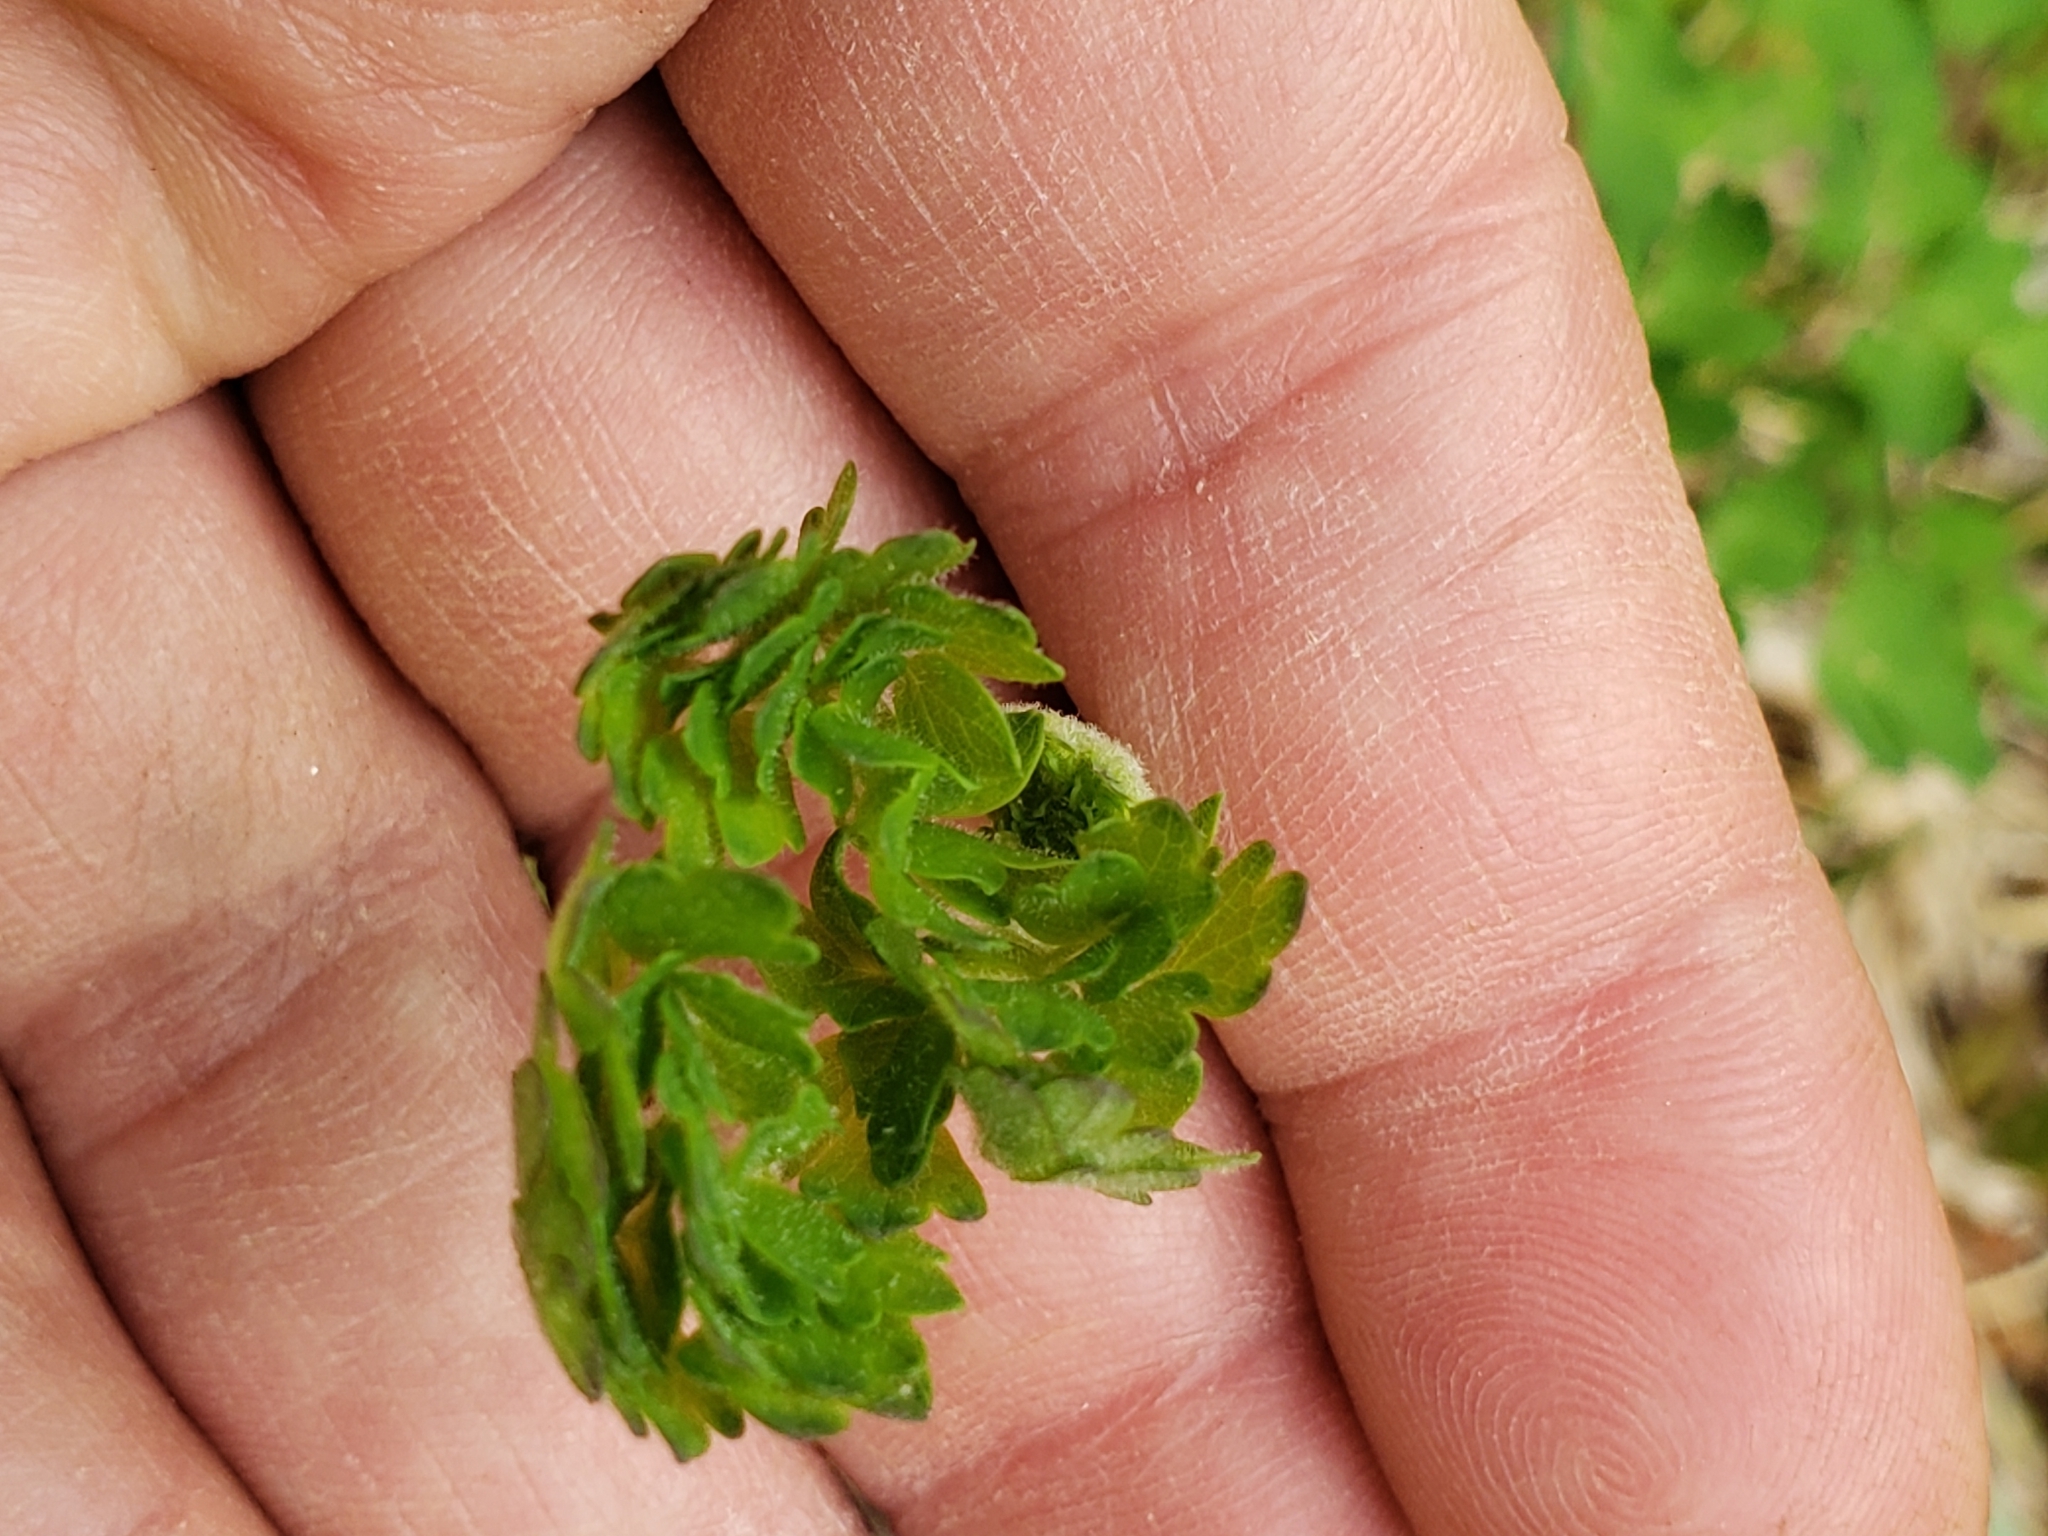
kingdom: Plantae
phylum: Tracheophyta
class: Polypodiopsida
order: Polypodiales
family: Onocleaceae
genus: Onoclea
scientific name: Onoclea sensibilis
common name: Sensitive fern
